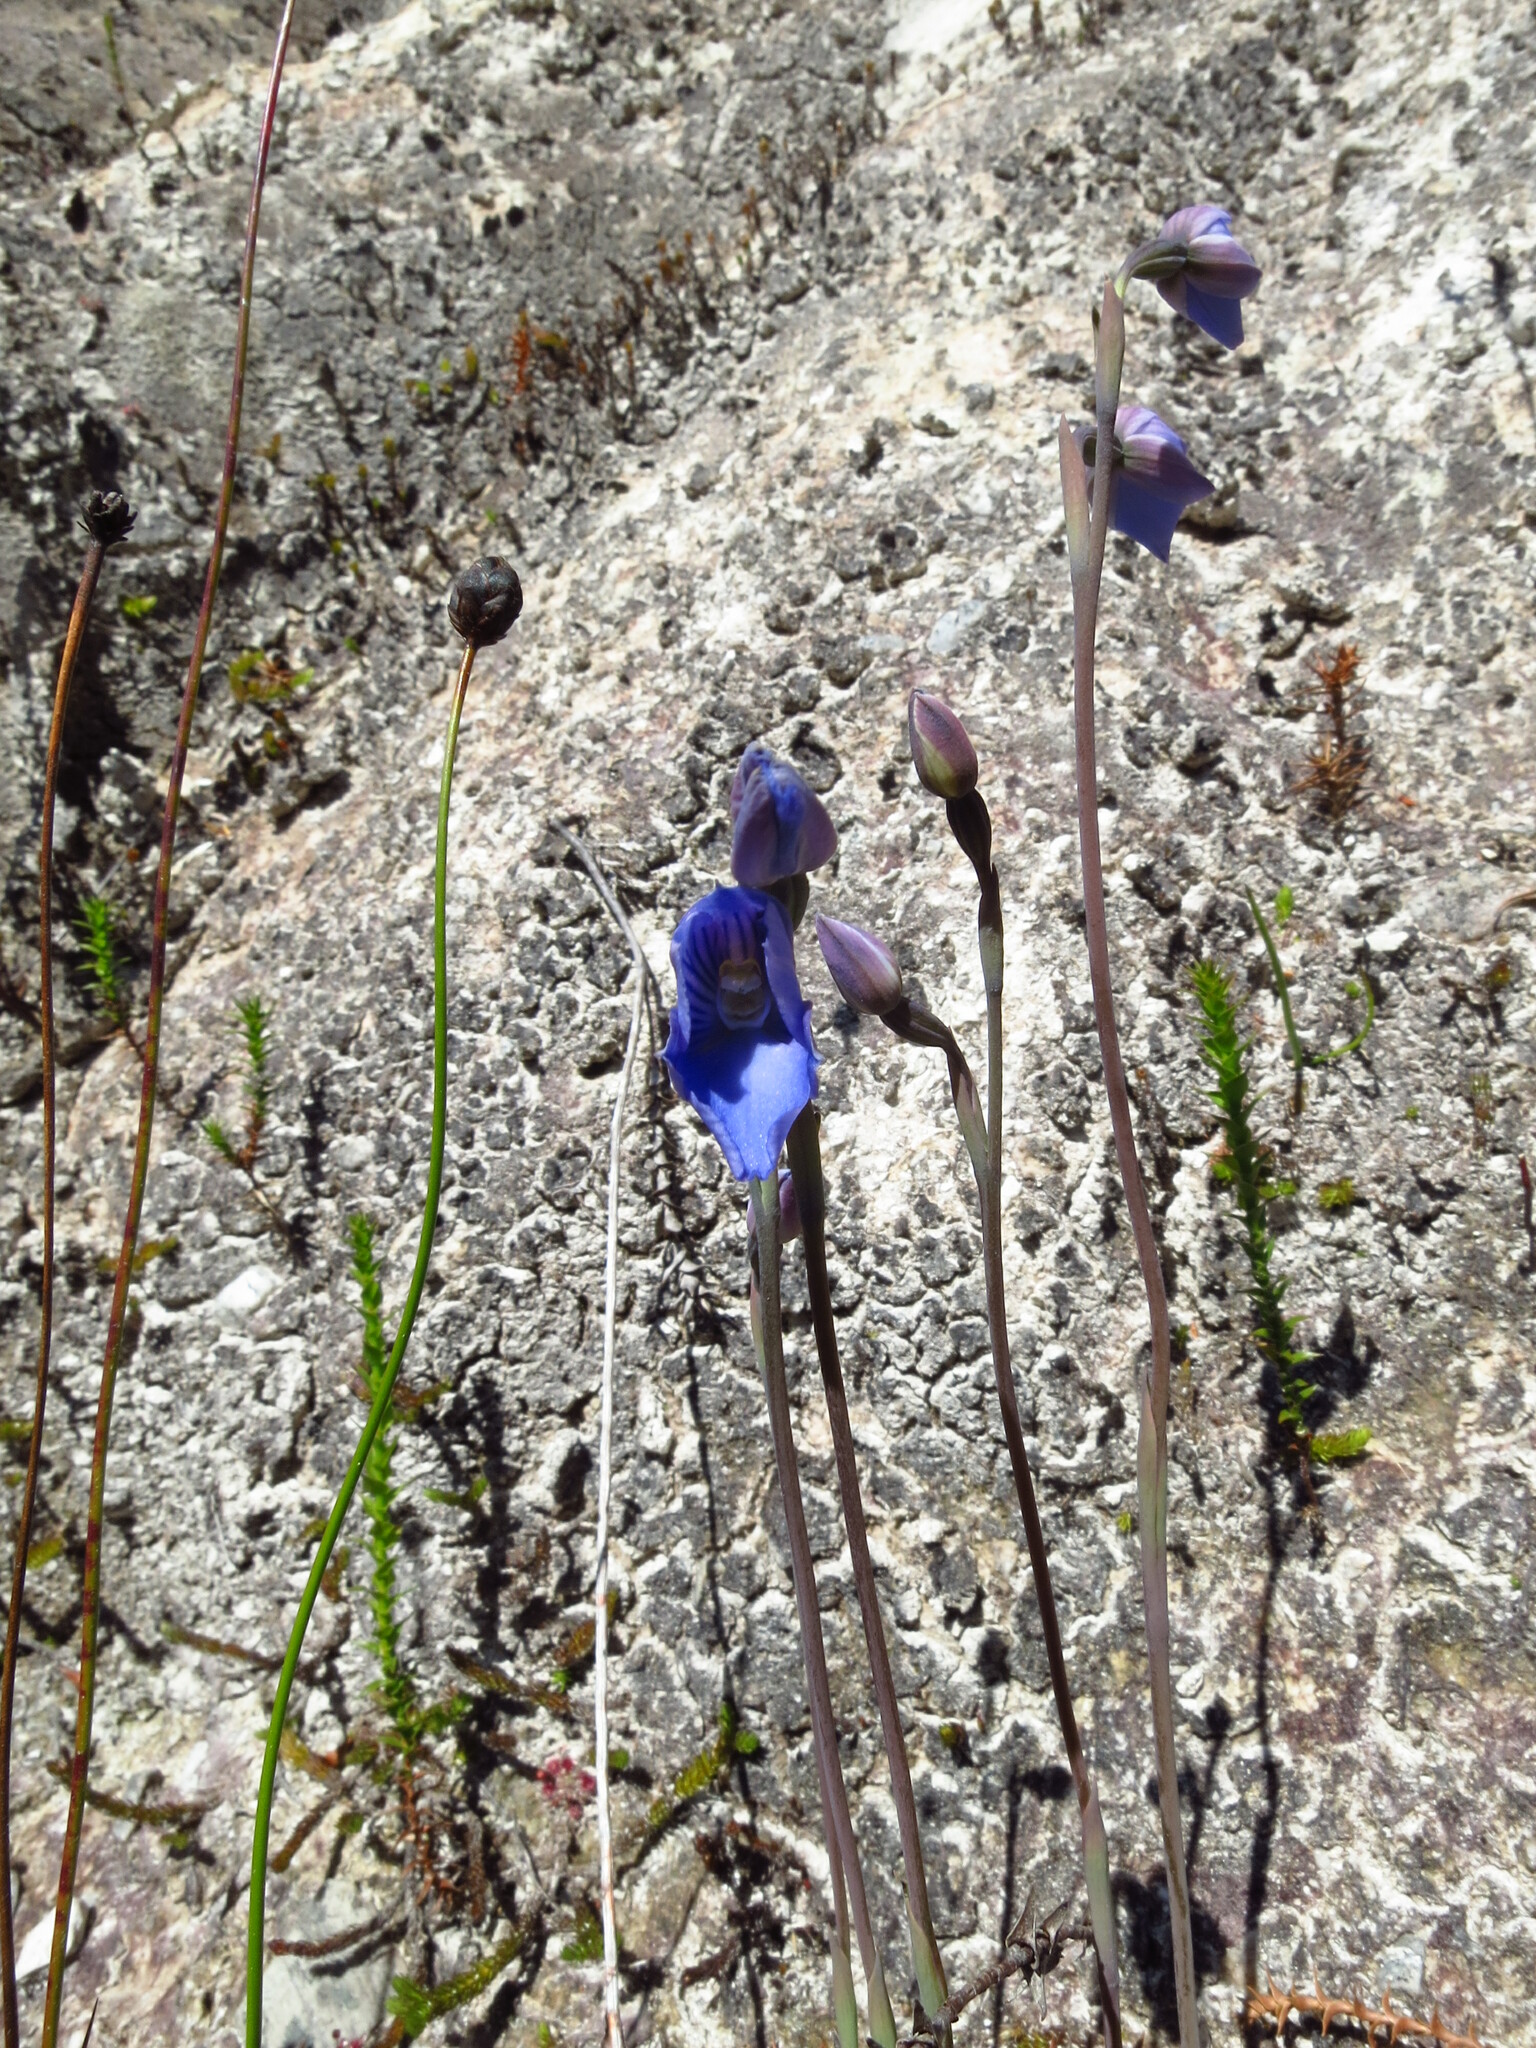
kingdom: Plantae
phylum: Tracheophyta
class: Liliopsida
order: Asparagales
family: Orchidaceae
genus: Thelymitra
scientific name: Thelymitra cyanea
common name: Blue sun-orchid
